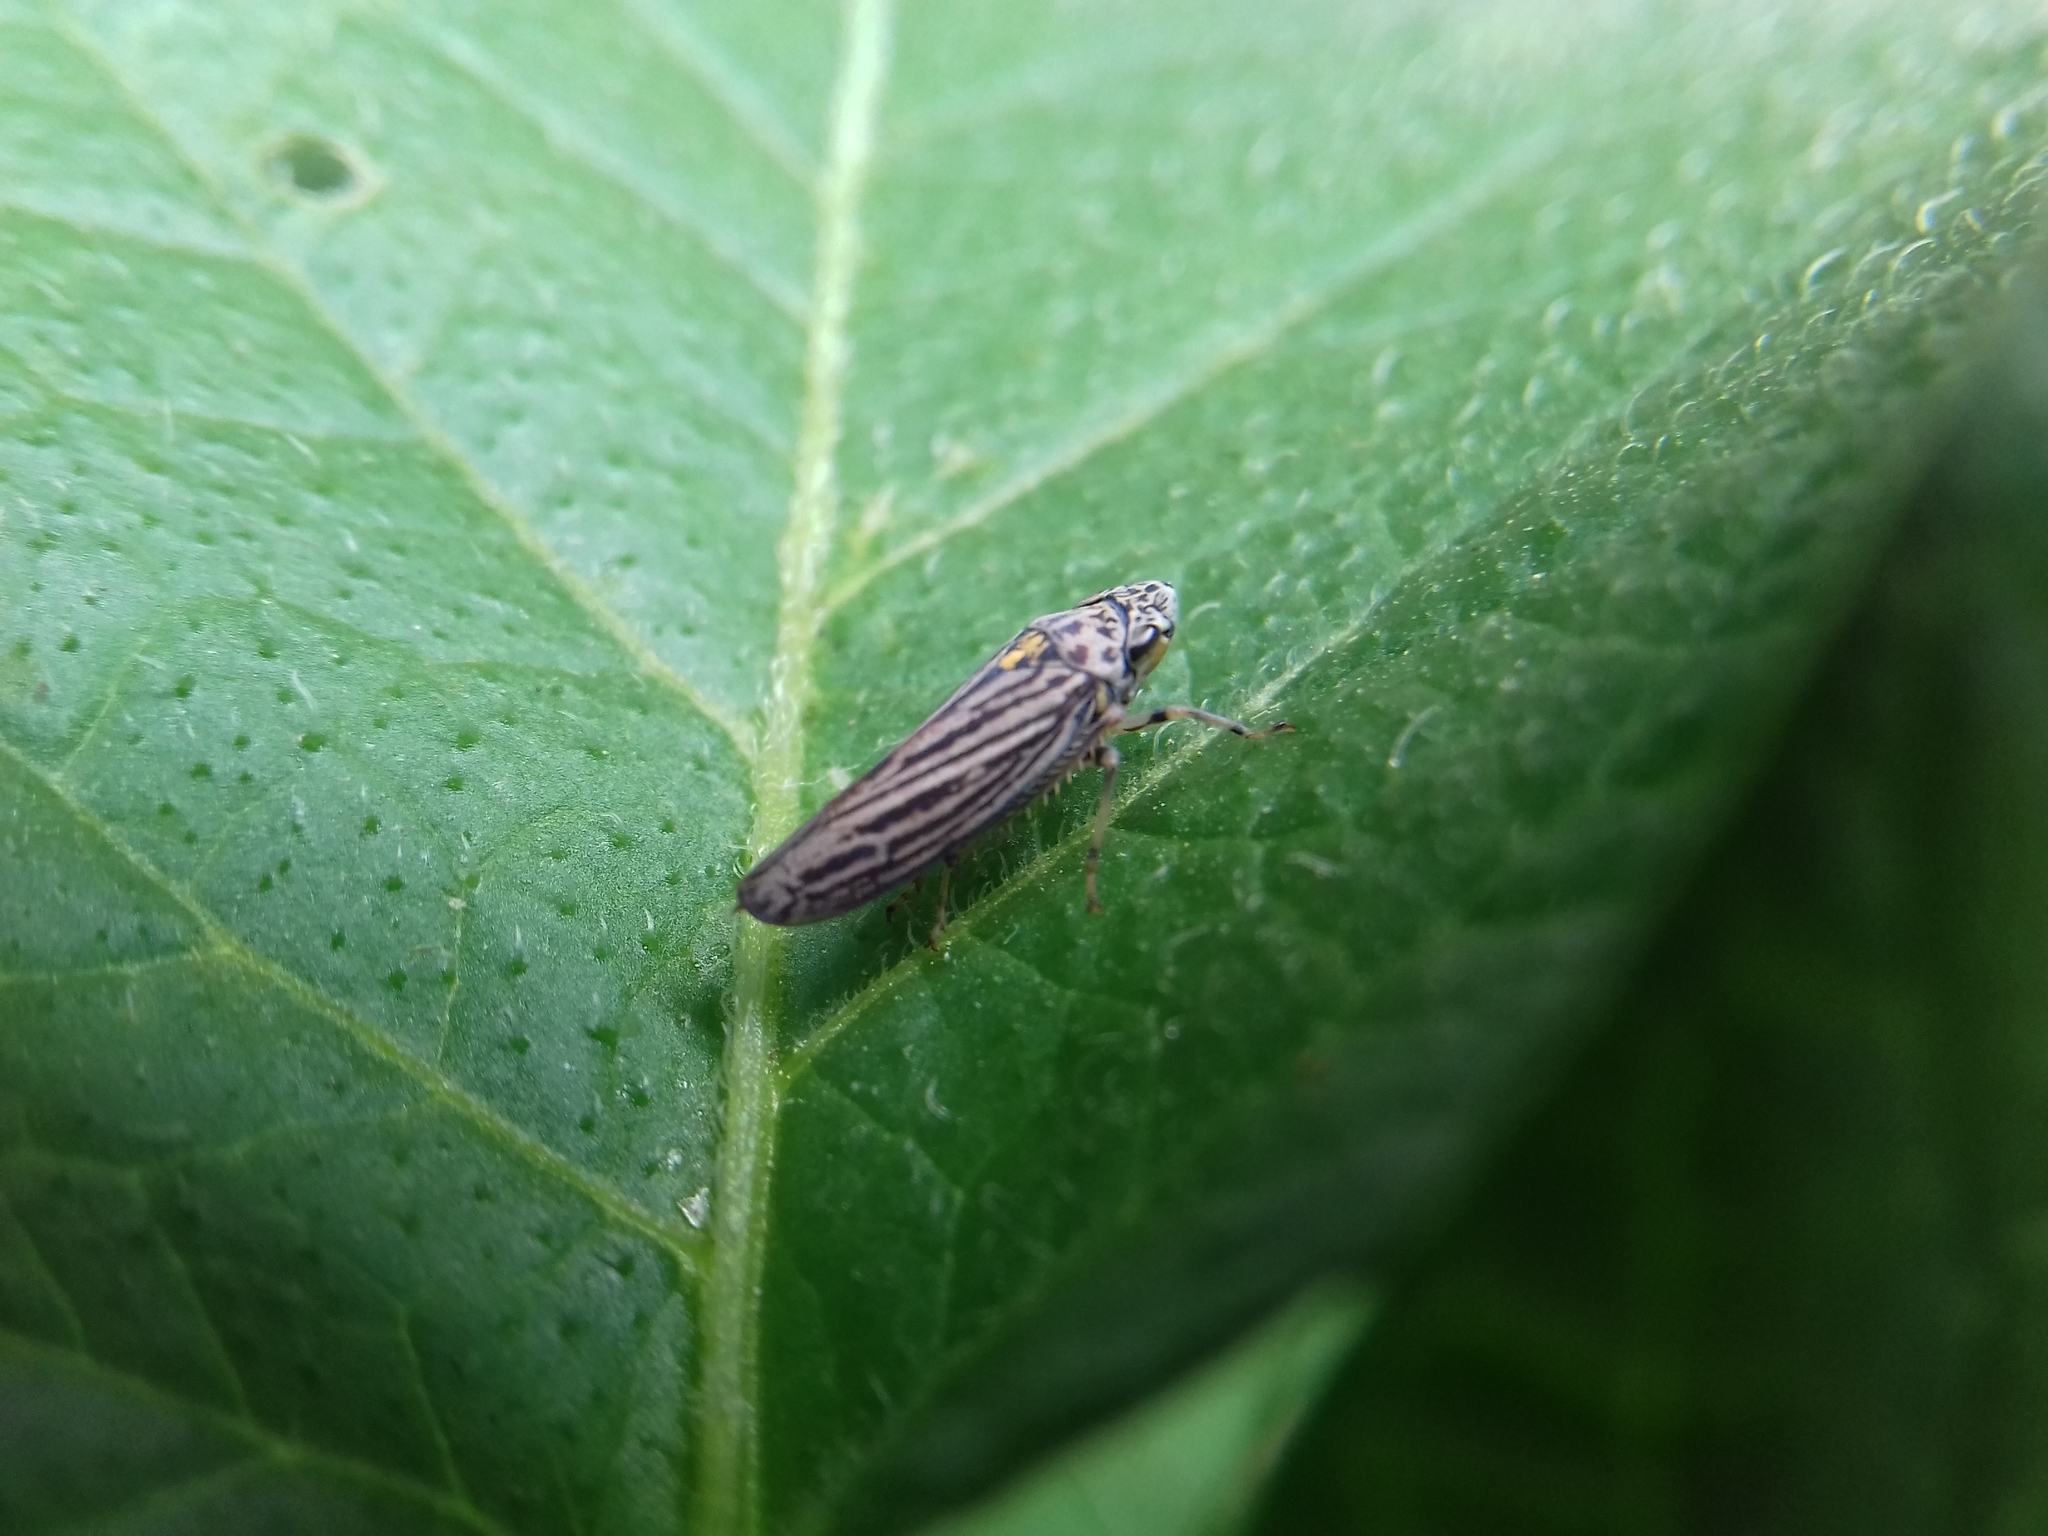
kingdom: Animalia
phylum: Arthropoda
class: Insecta
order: Hemiptera
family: Cicadellidae
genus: Graphocephala
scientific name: Graphocephala appropinquans
